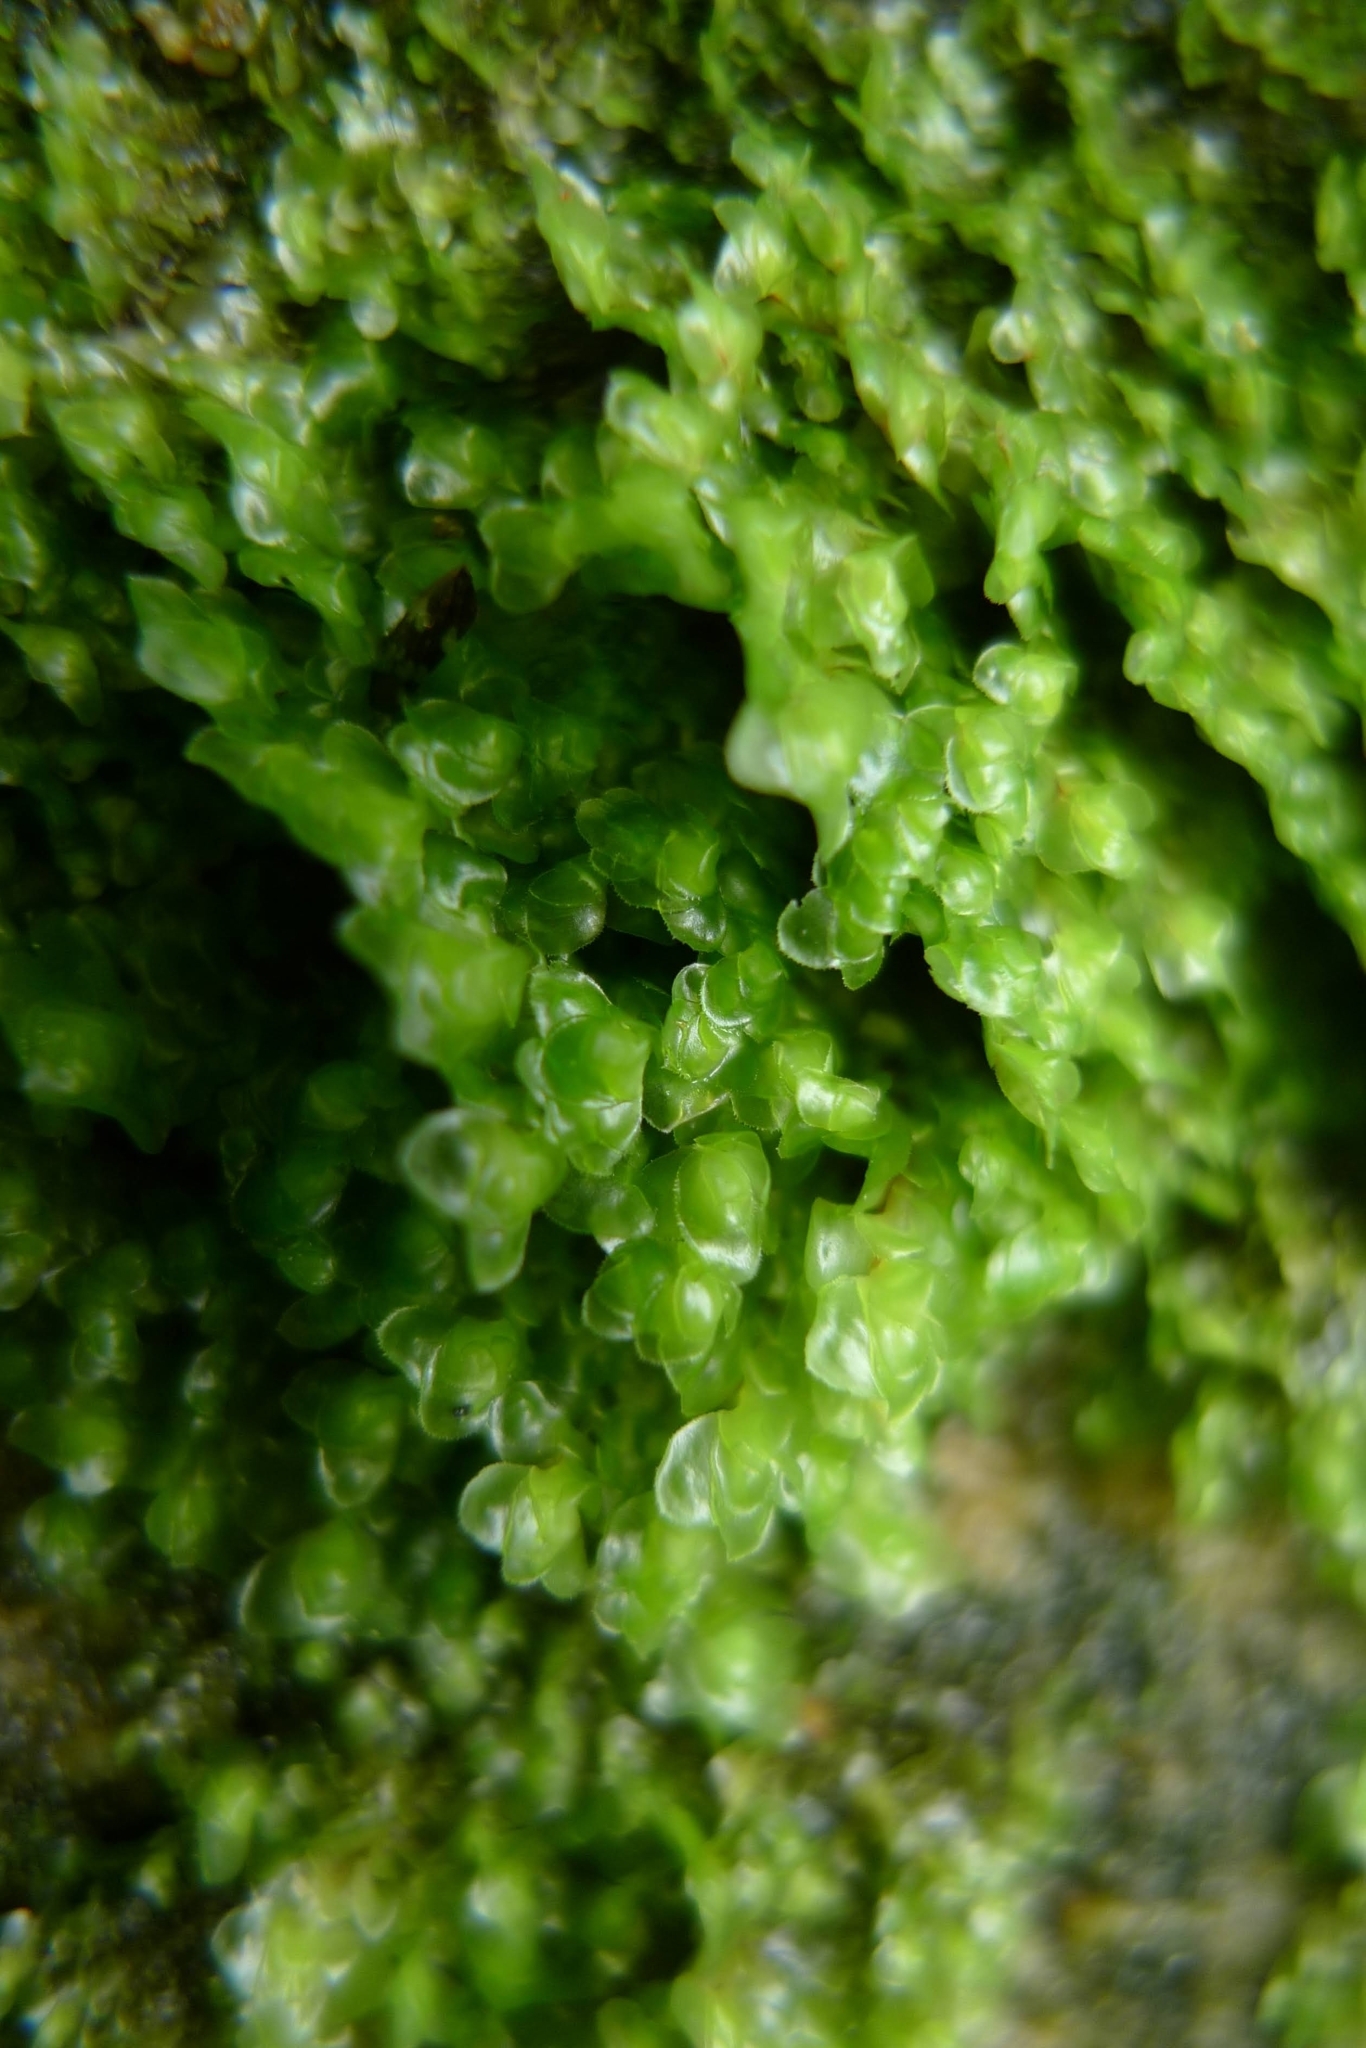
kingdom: Plantae
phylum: Marchantiophyta
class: Jungermanniopsida
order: Jungermanniales
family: Scapaniaceae
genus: Scapania
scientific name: Scapania nemorea
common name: Grove earwort
